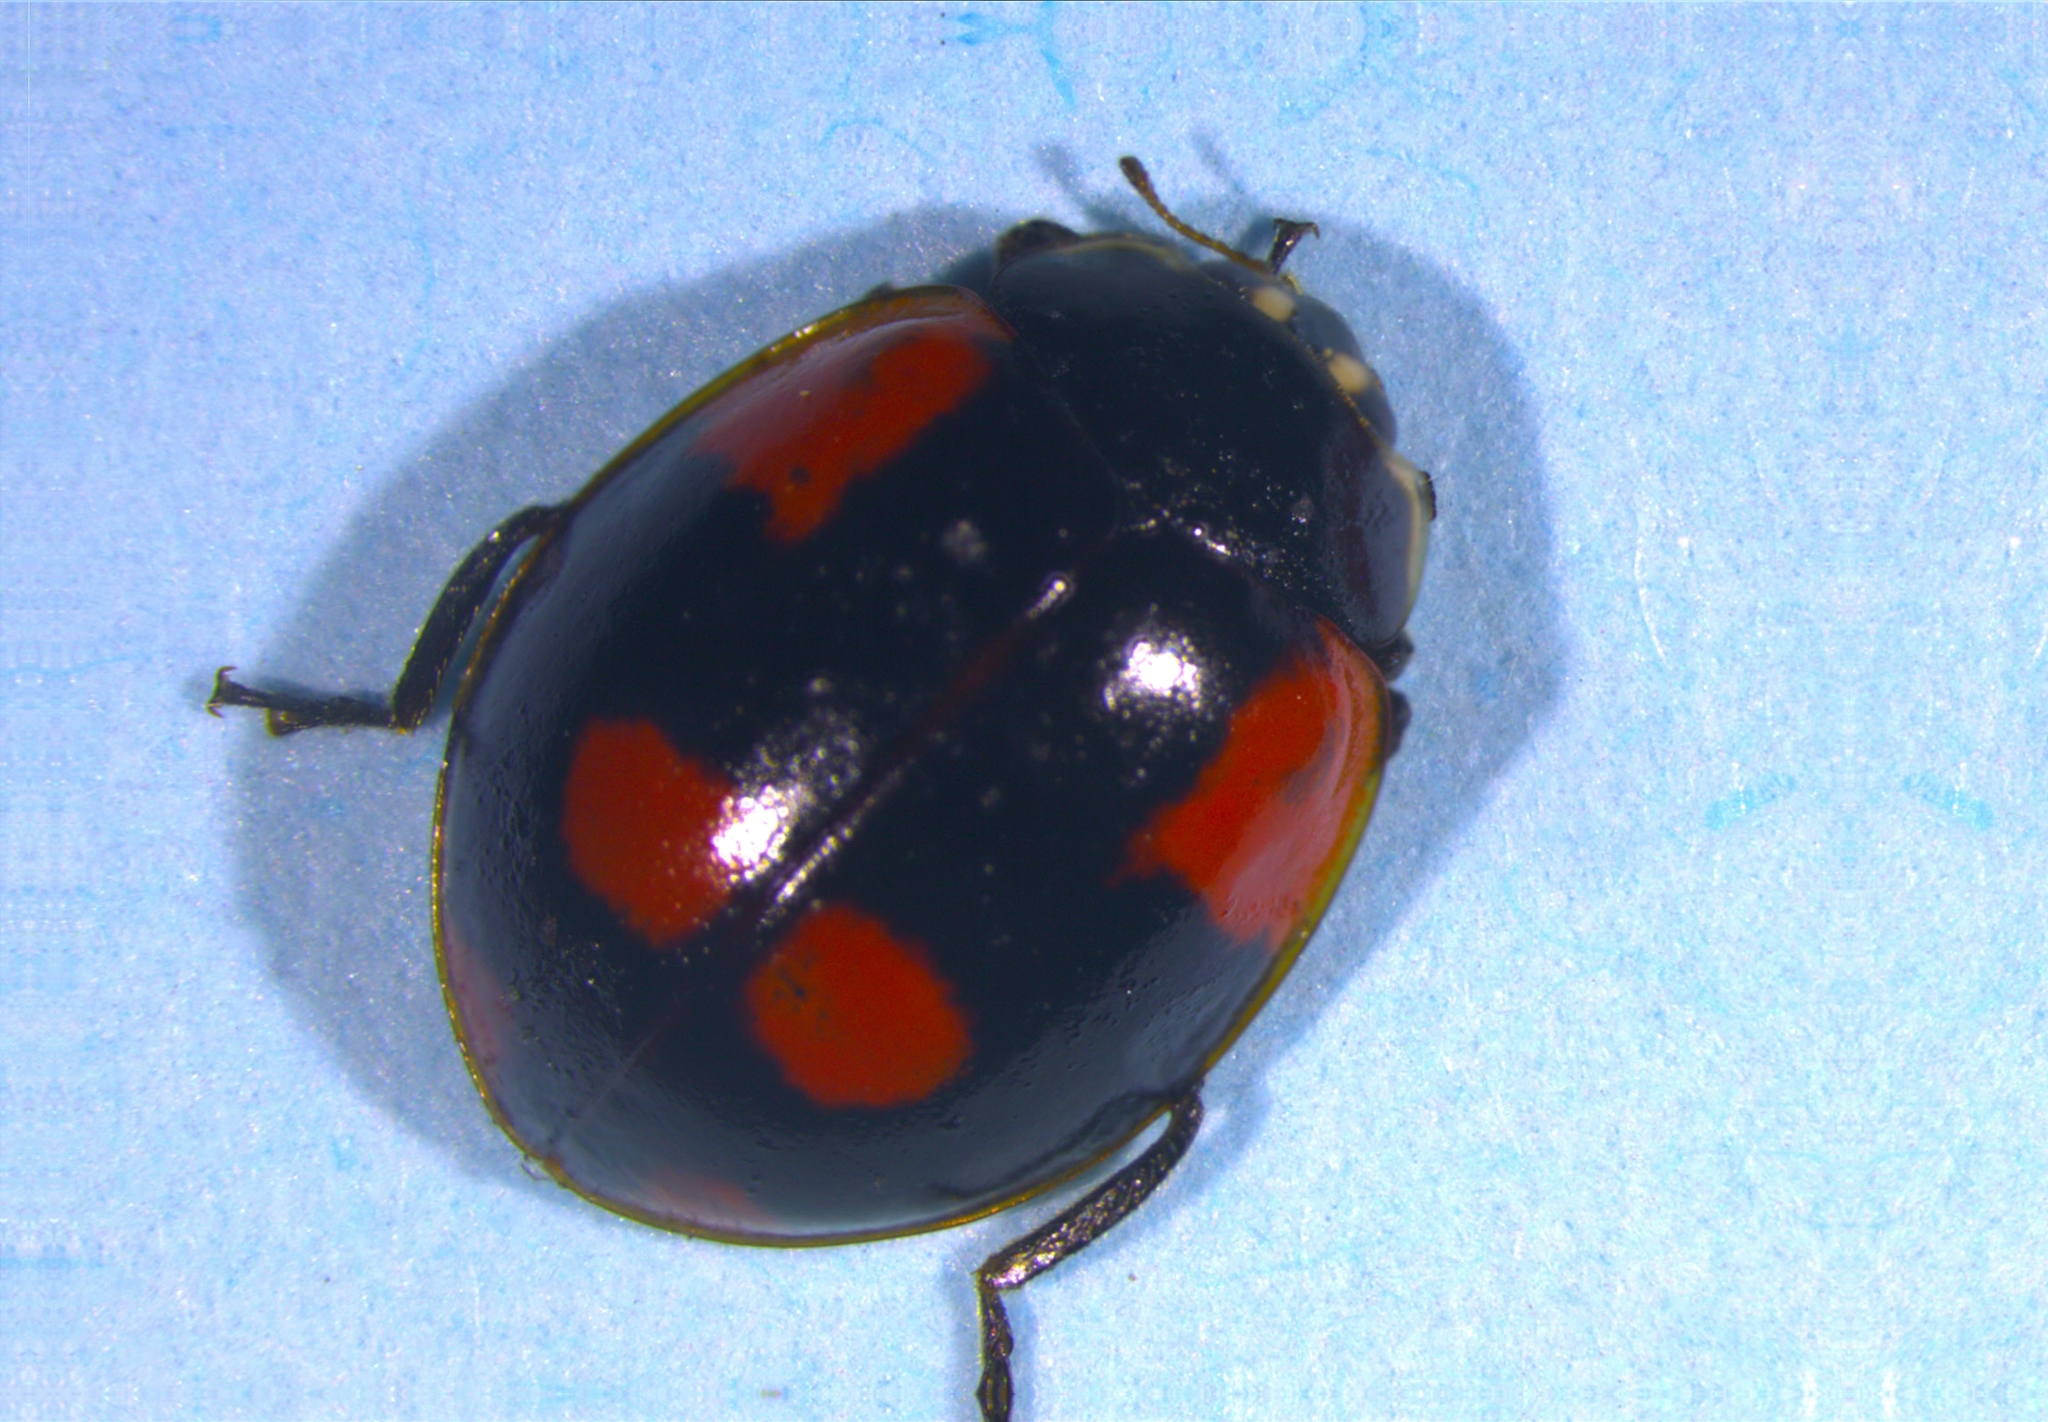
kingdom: Animalia
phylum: Arthropoda
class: Insecta
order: Coleoptera
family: Coccinellidae
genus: Adalia
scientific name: Adalia bipunctata
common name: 2-spot ladybird
